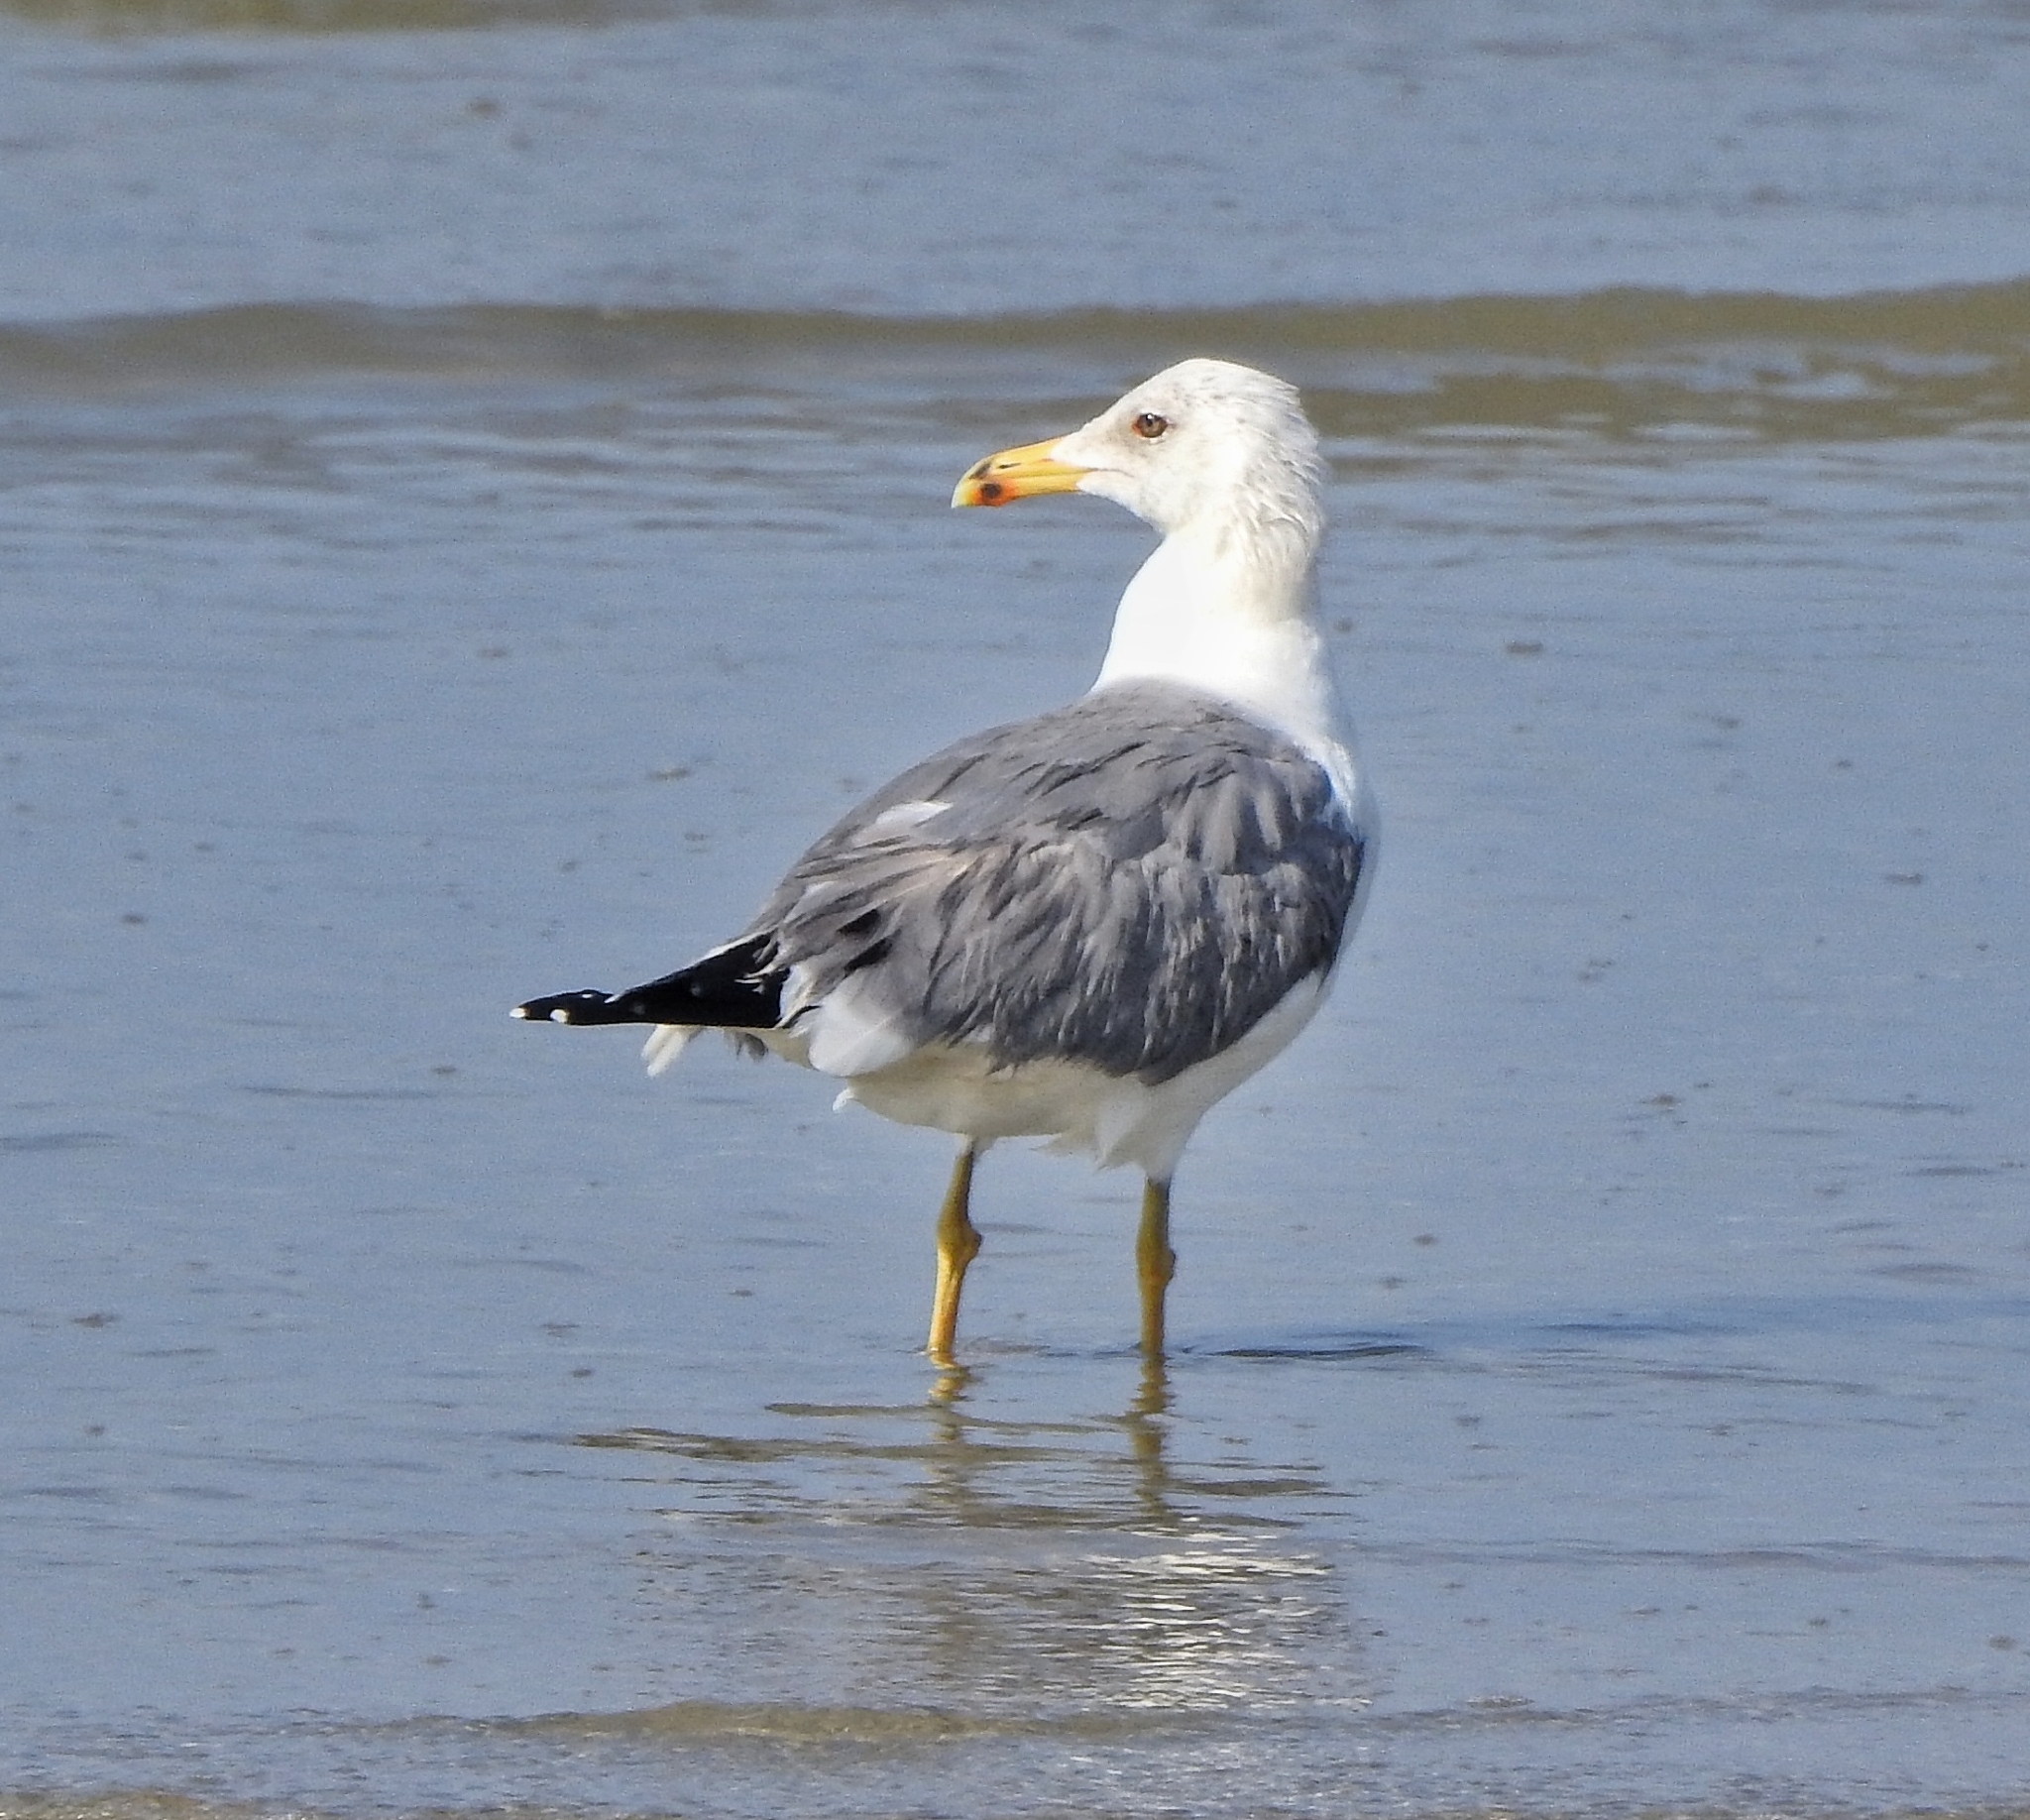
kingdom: Animalia
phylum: Chordata
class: Aves
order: Charadriiformes
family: Laridae
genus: Larus
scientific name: Larus fuscus
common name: Lesser black-backed gull
